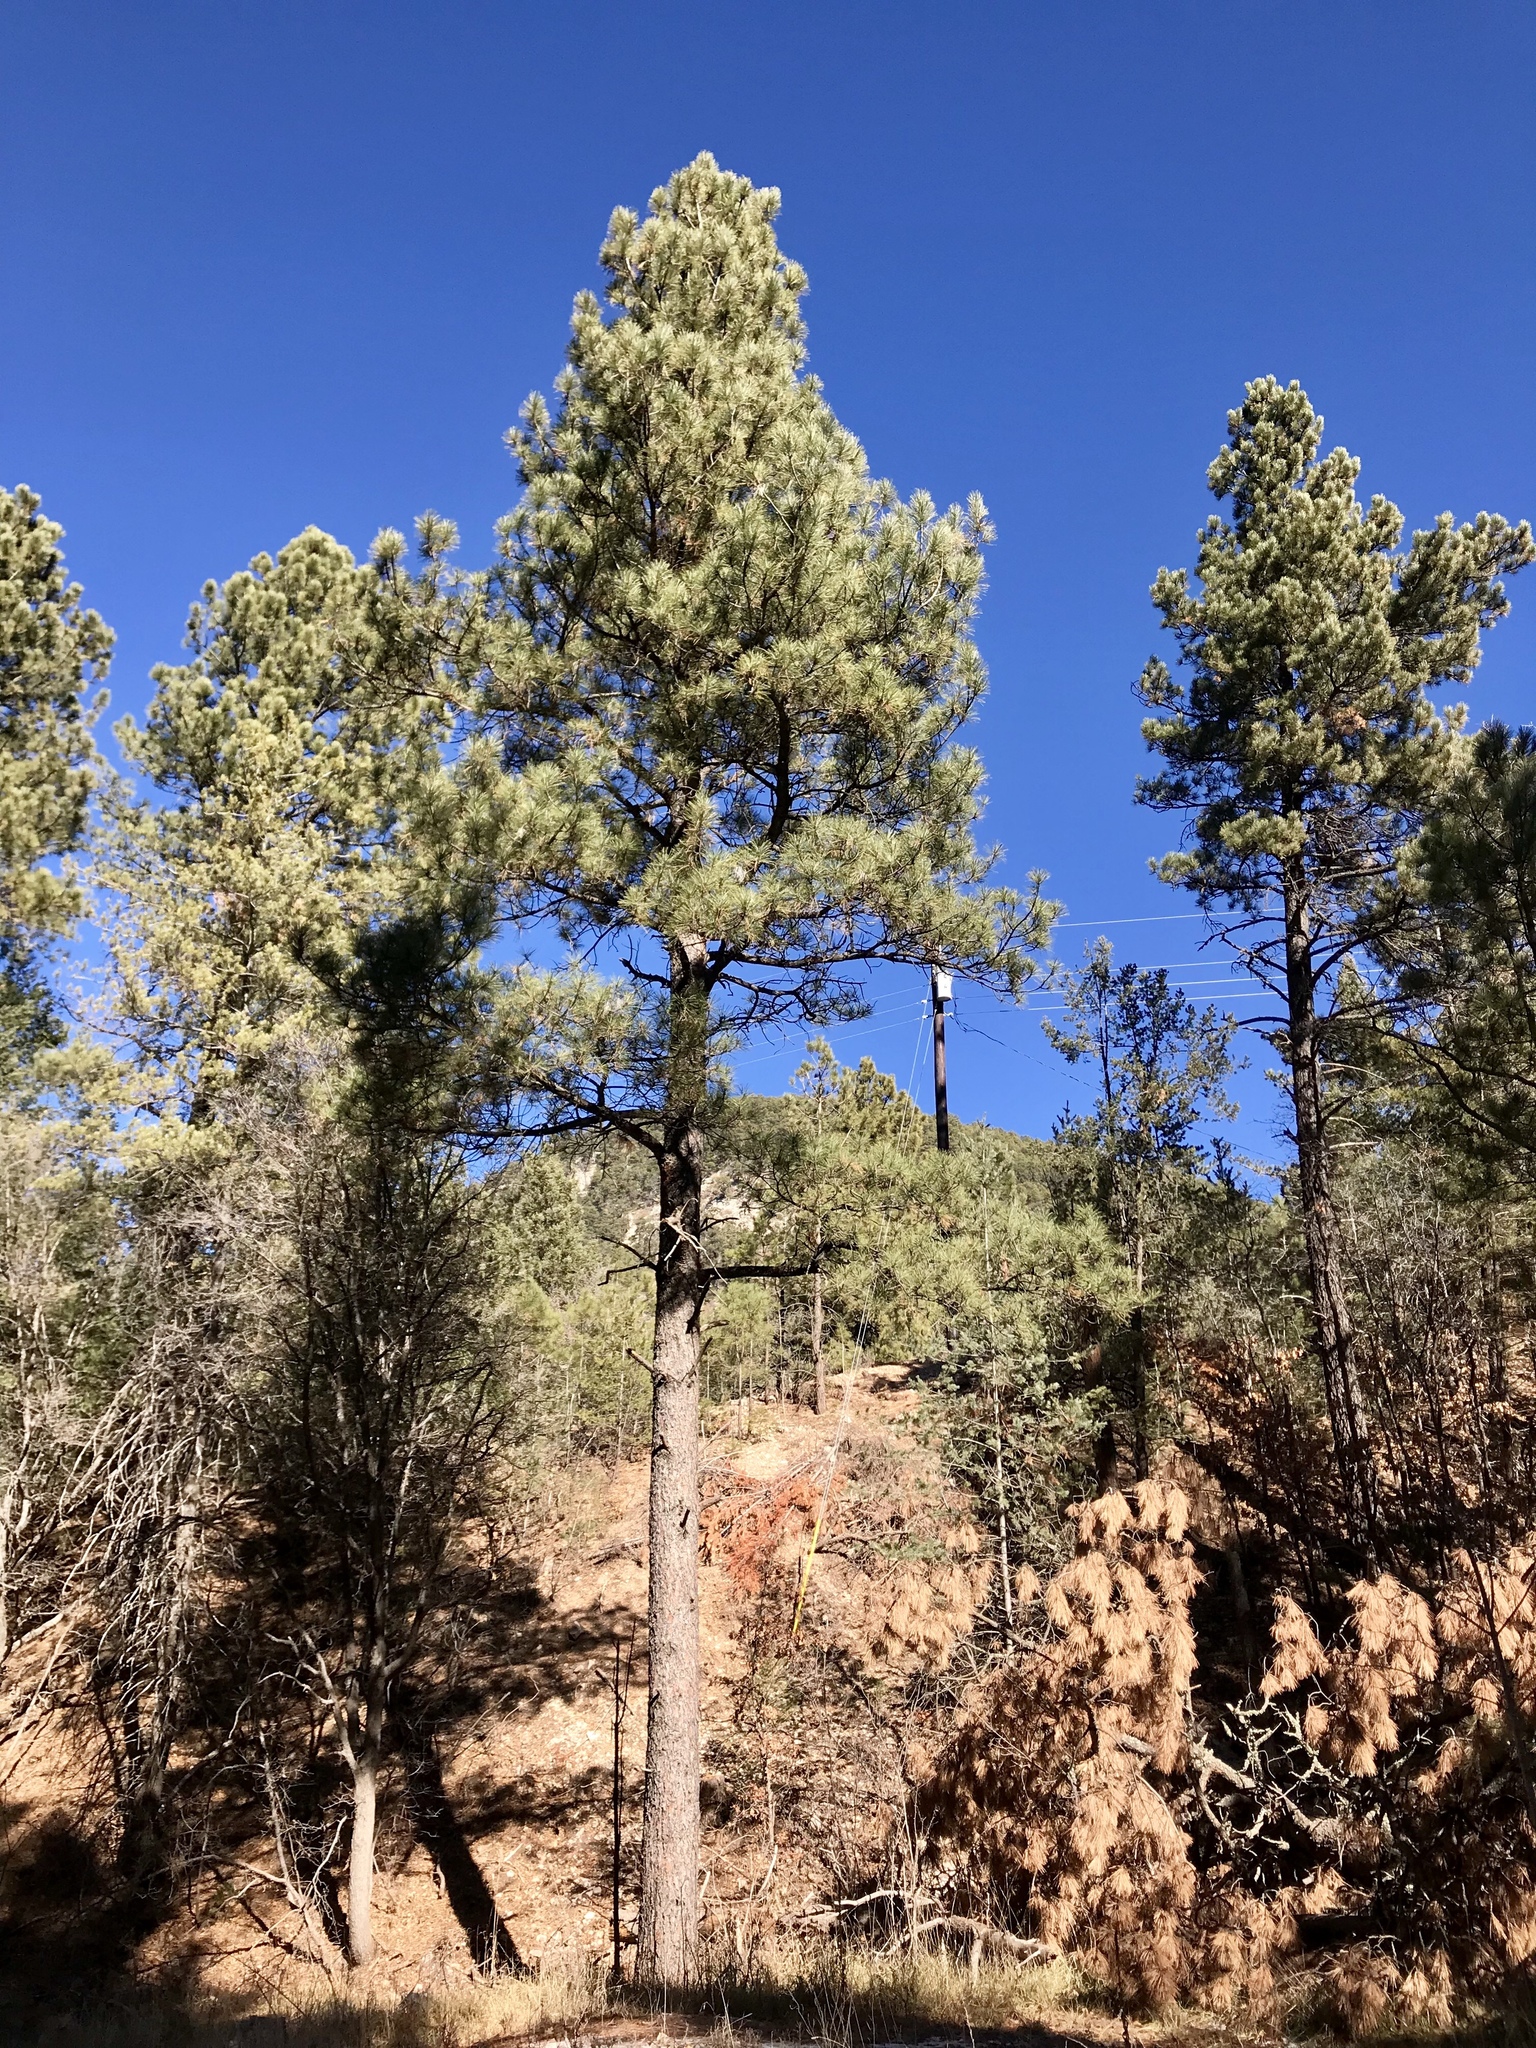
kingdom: Plantae
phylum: Tracheophyta
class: Pinopsida
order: Pinales
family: Pinaceae
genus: Pinus
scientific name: Pinus ponderosa
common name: Western yellow-pine
